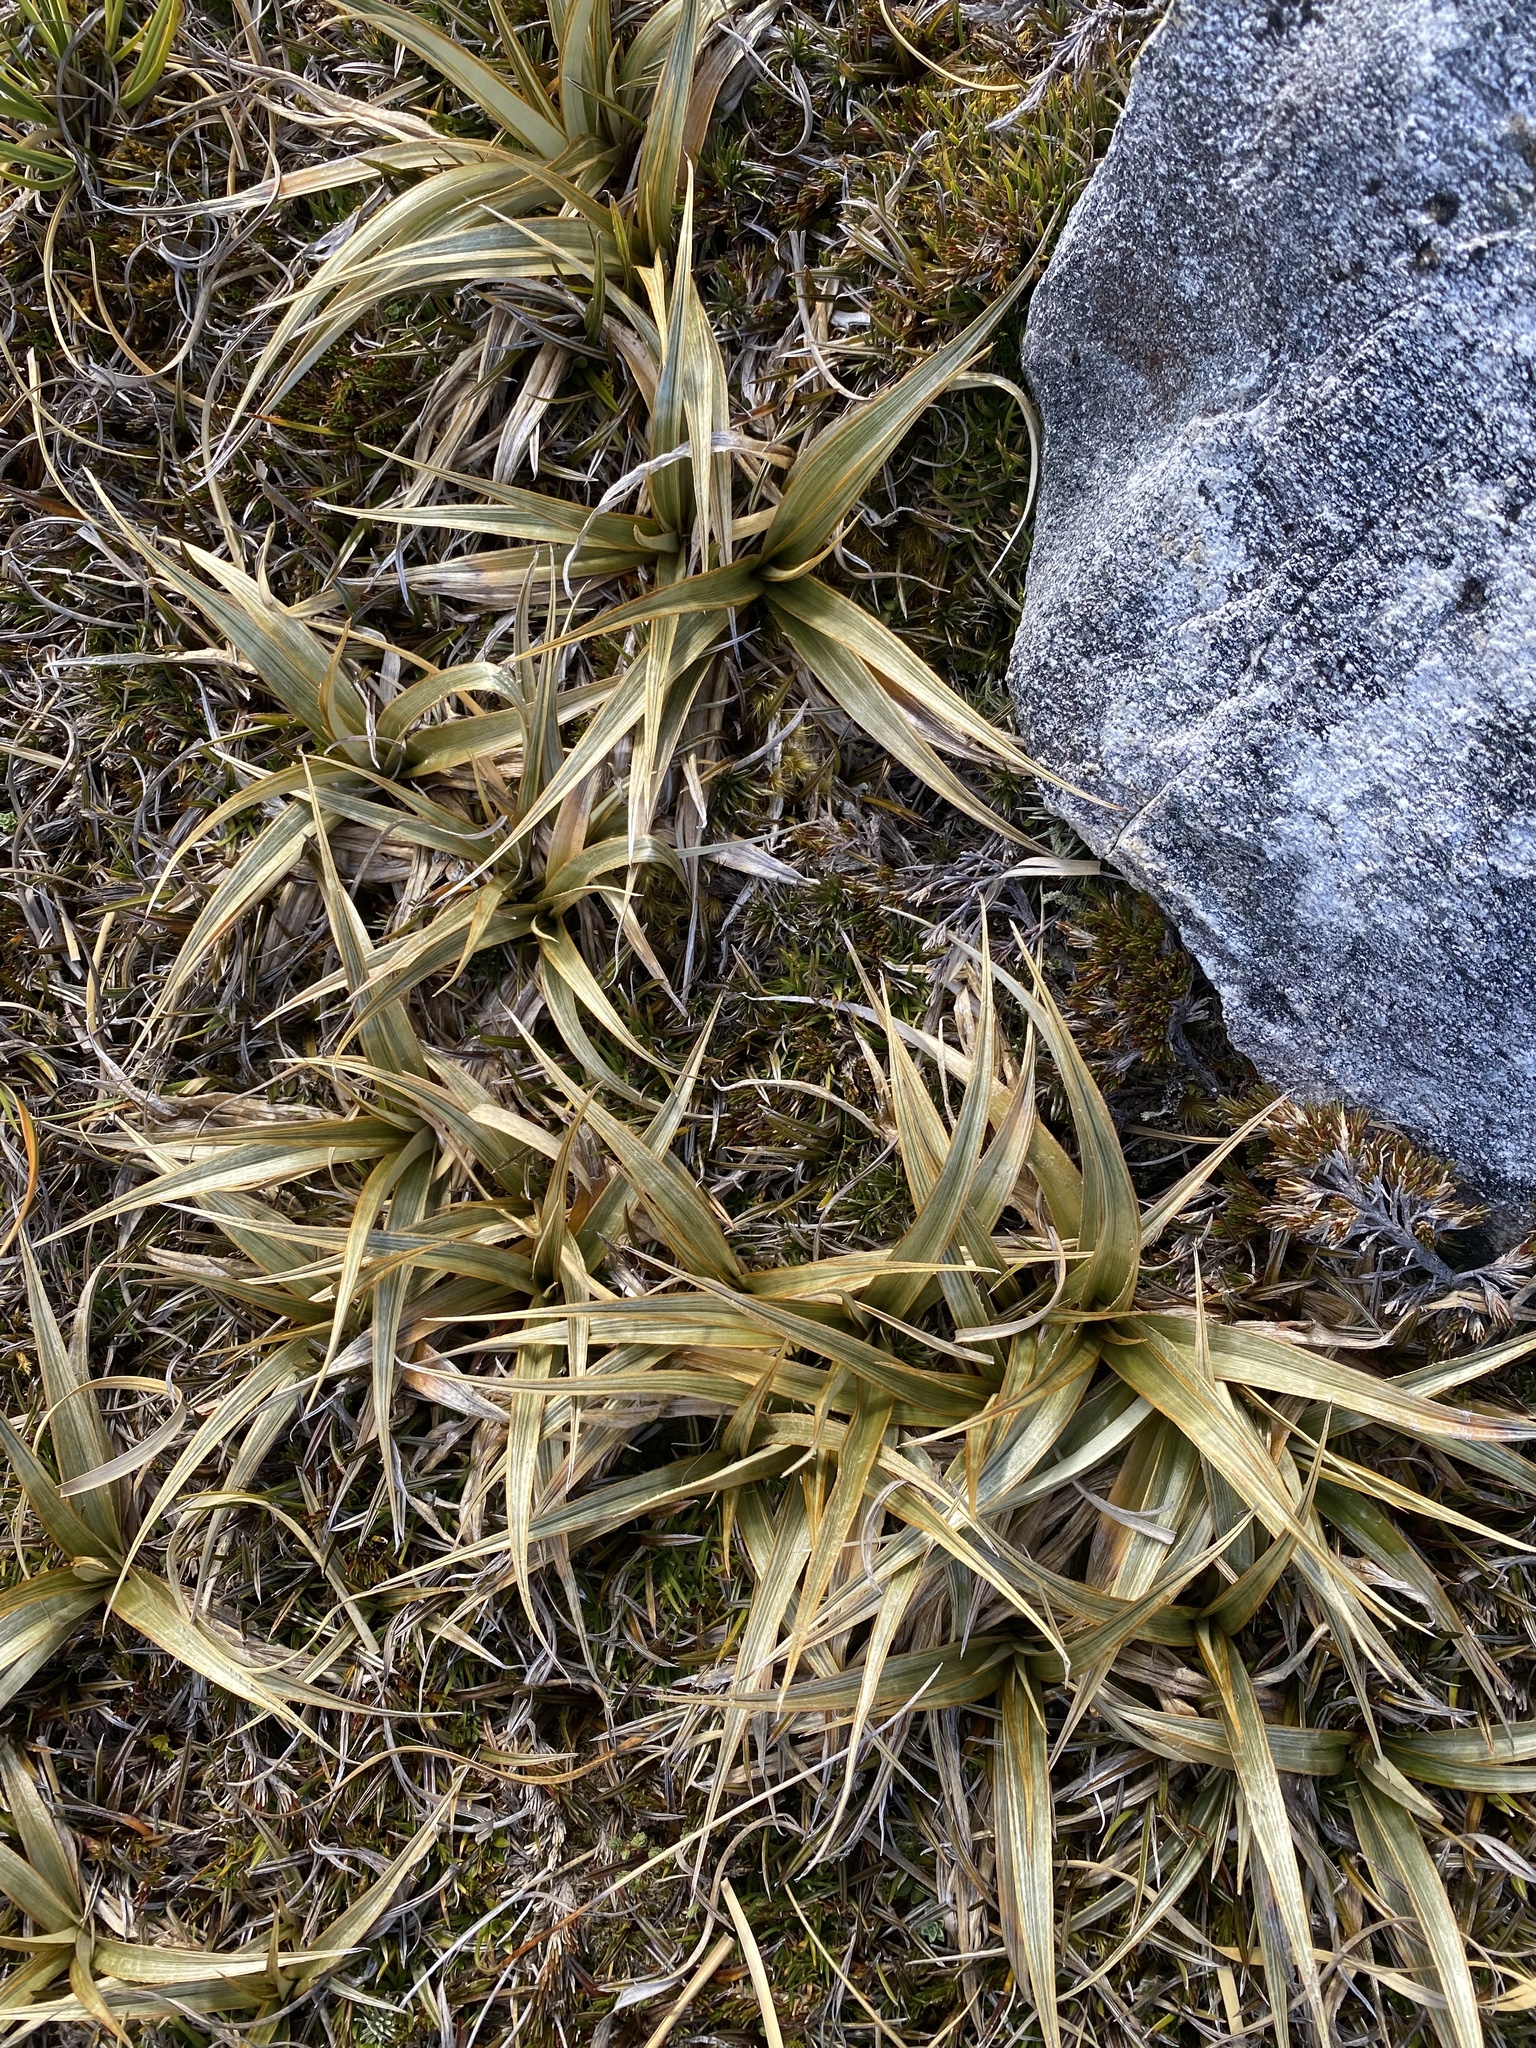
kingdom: Plantae
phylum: Tracheophyta
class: Liliopsida
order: Asparagales
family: Asteliaceae
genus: Astelia
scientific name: Astelia nervosa
